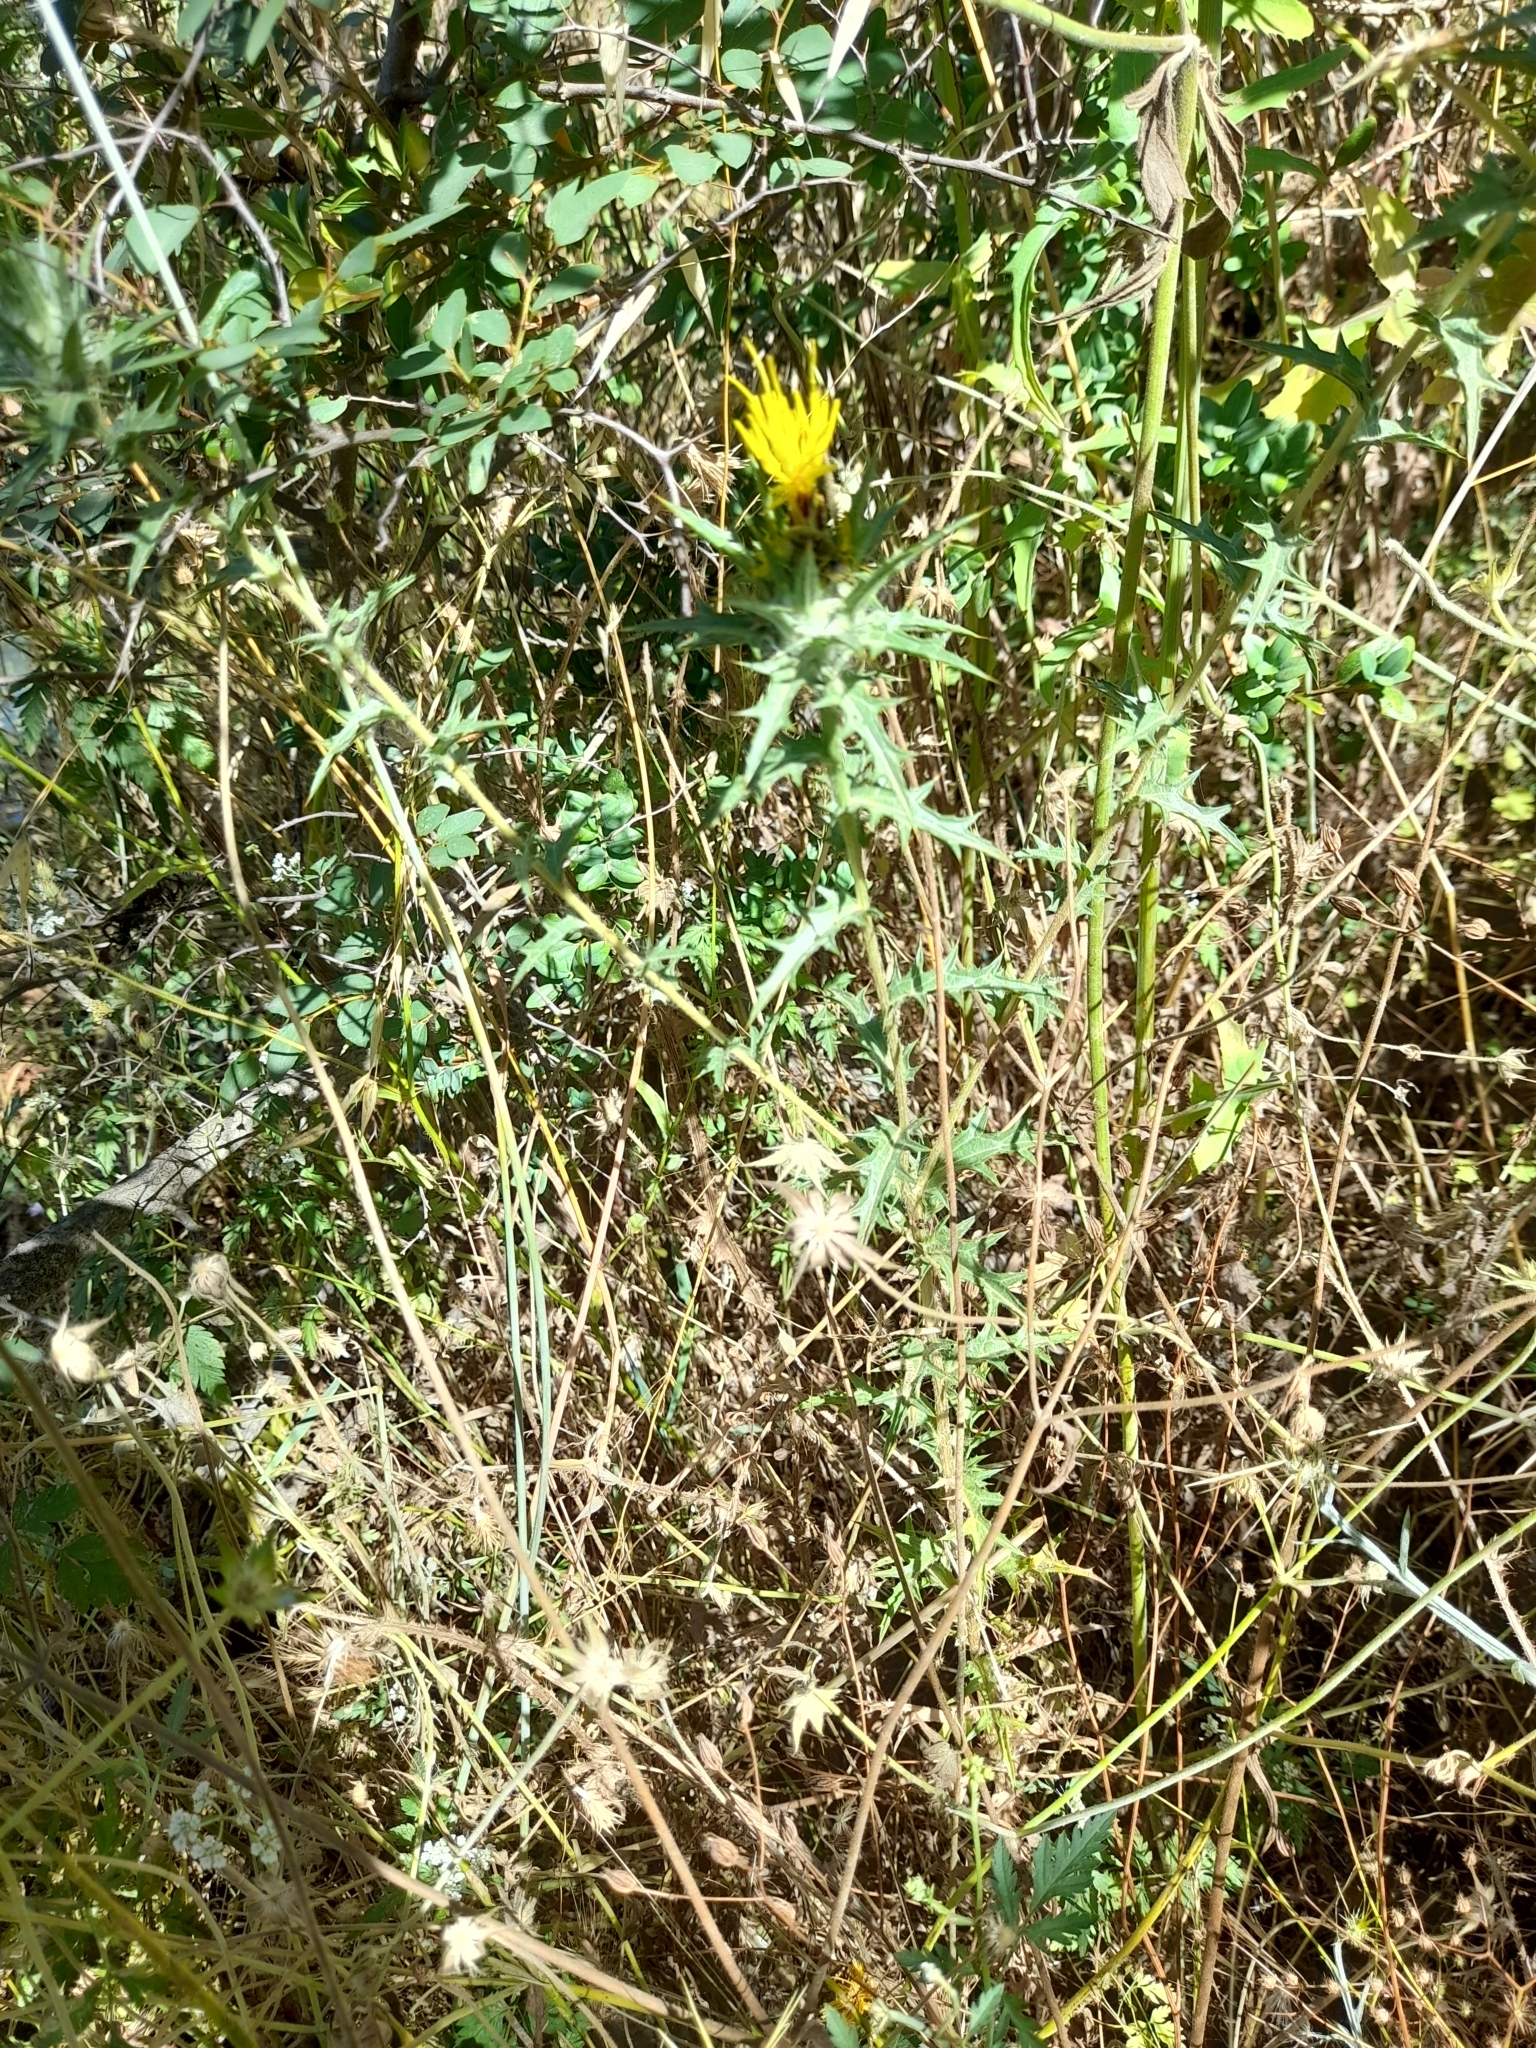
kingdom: Plantae
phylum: Tracheophyta
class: Magnoliopsida
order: Asterales
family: Asteraceae
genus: Carthamus
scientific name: Carthamus lanatus
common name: Downy safflower
